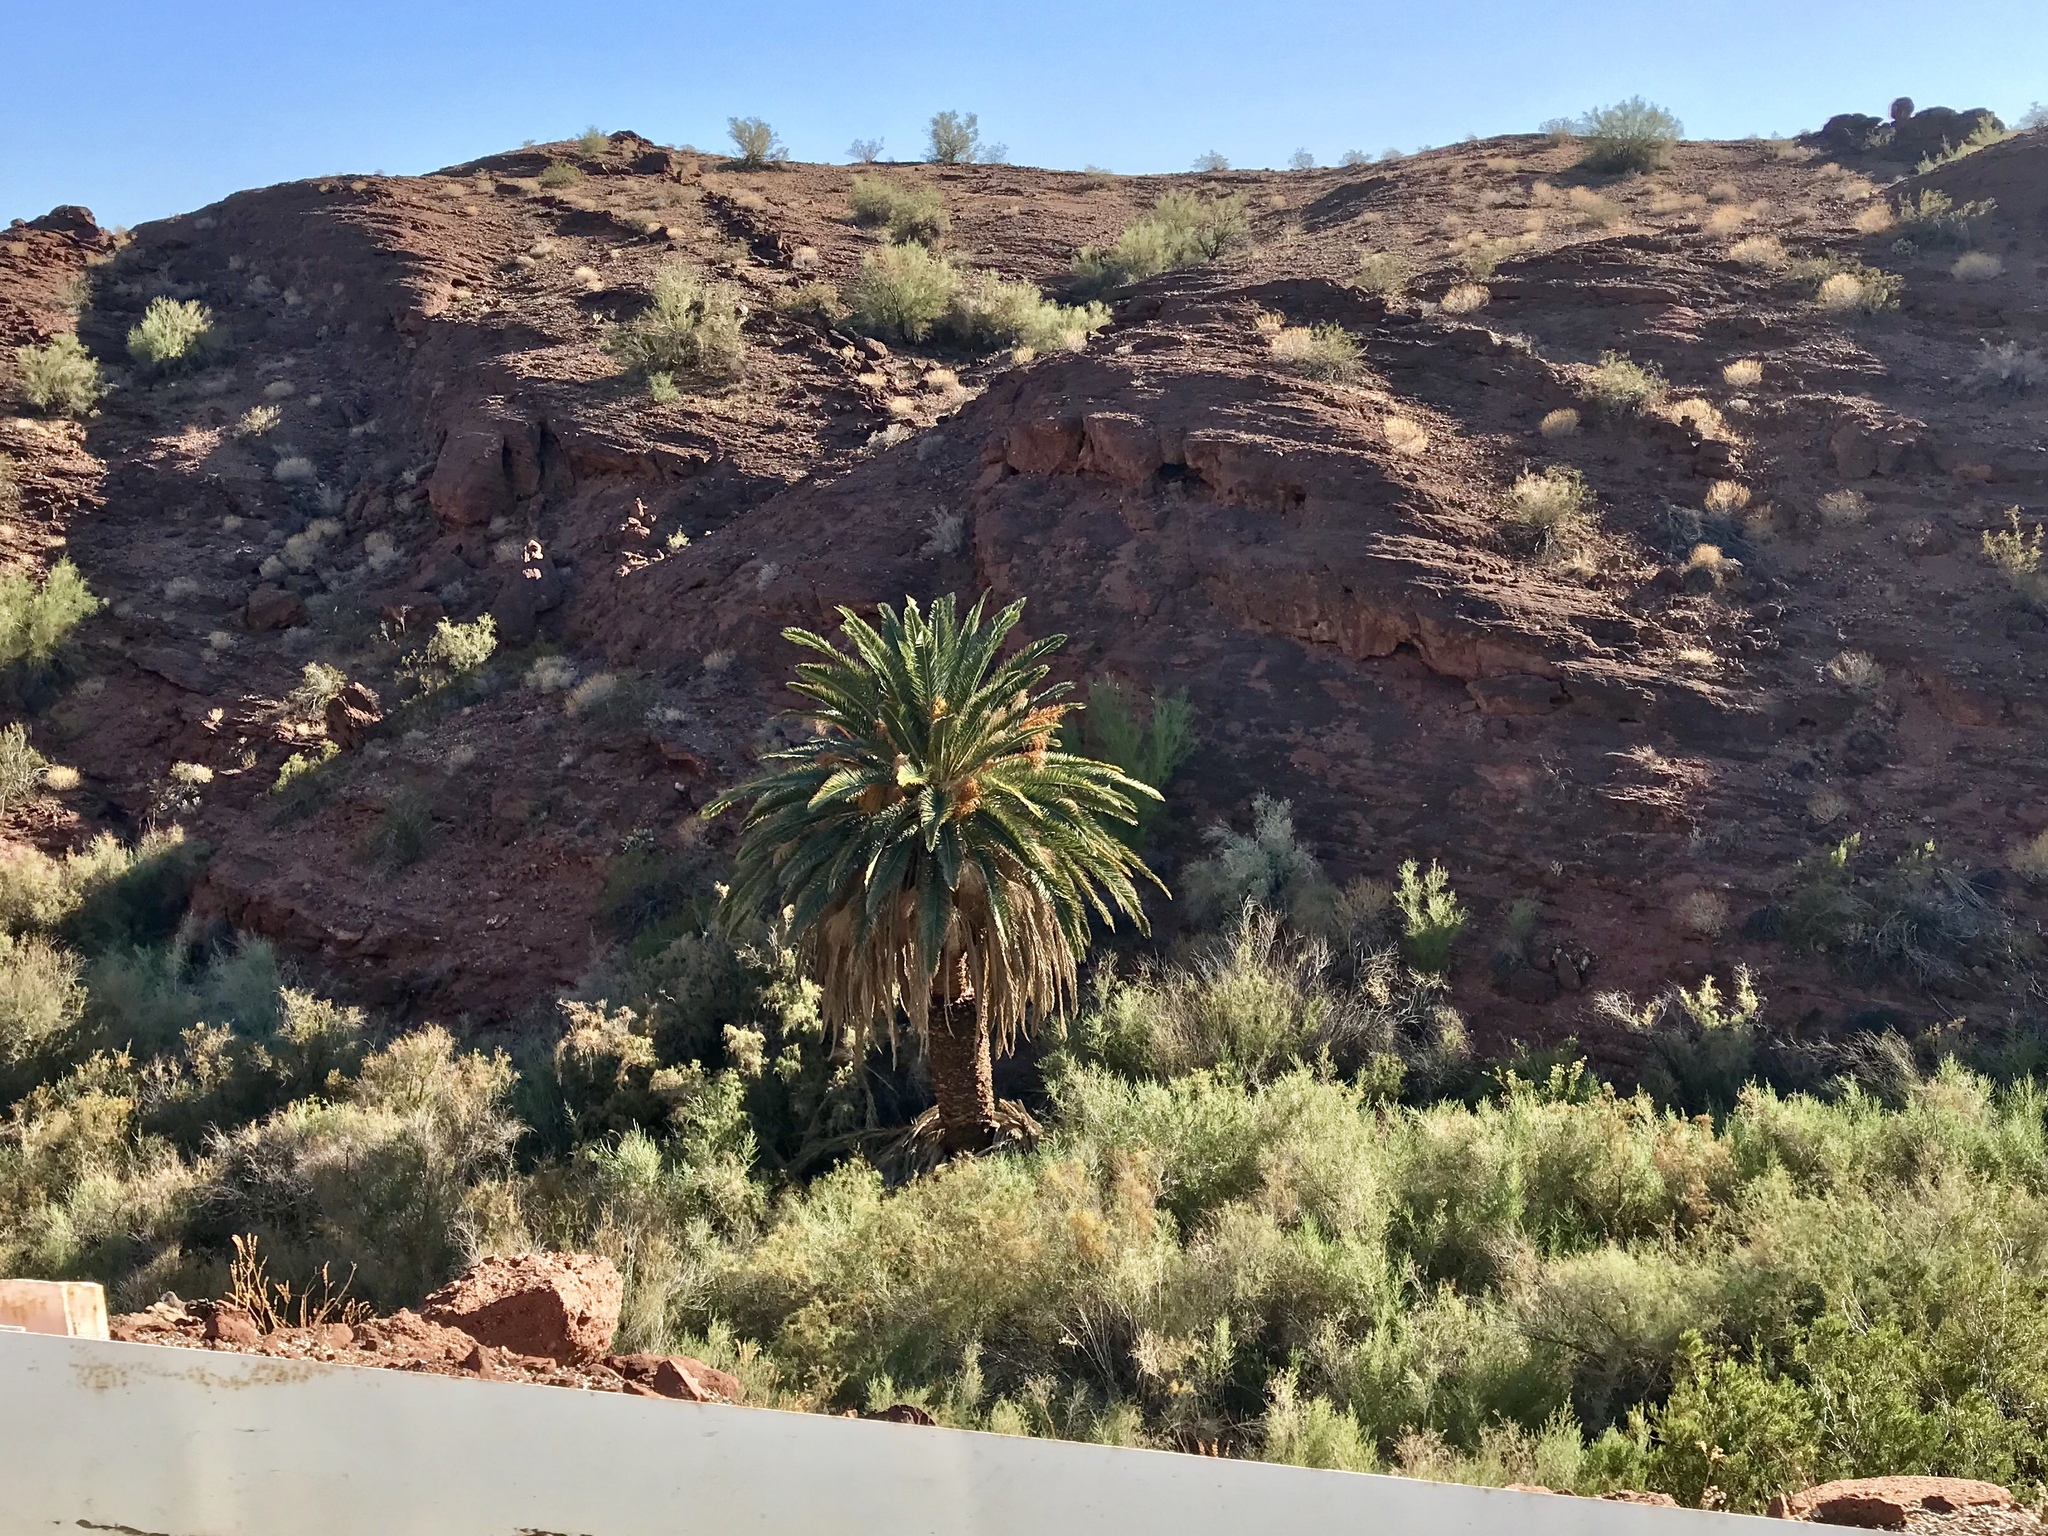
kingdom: Plantae
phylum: Tracheophyta
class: Liliopsida
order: Arecales
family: Arecaceae
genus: Phoenix
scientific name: Phoenix canariensis
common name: Canary island date palm
